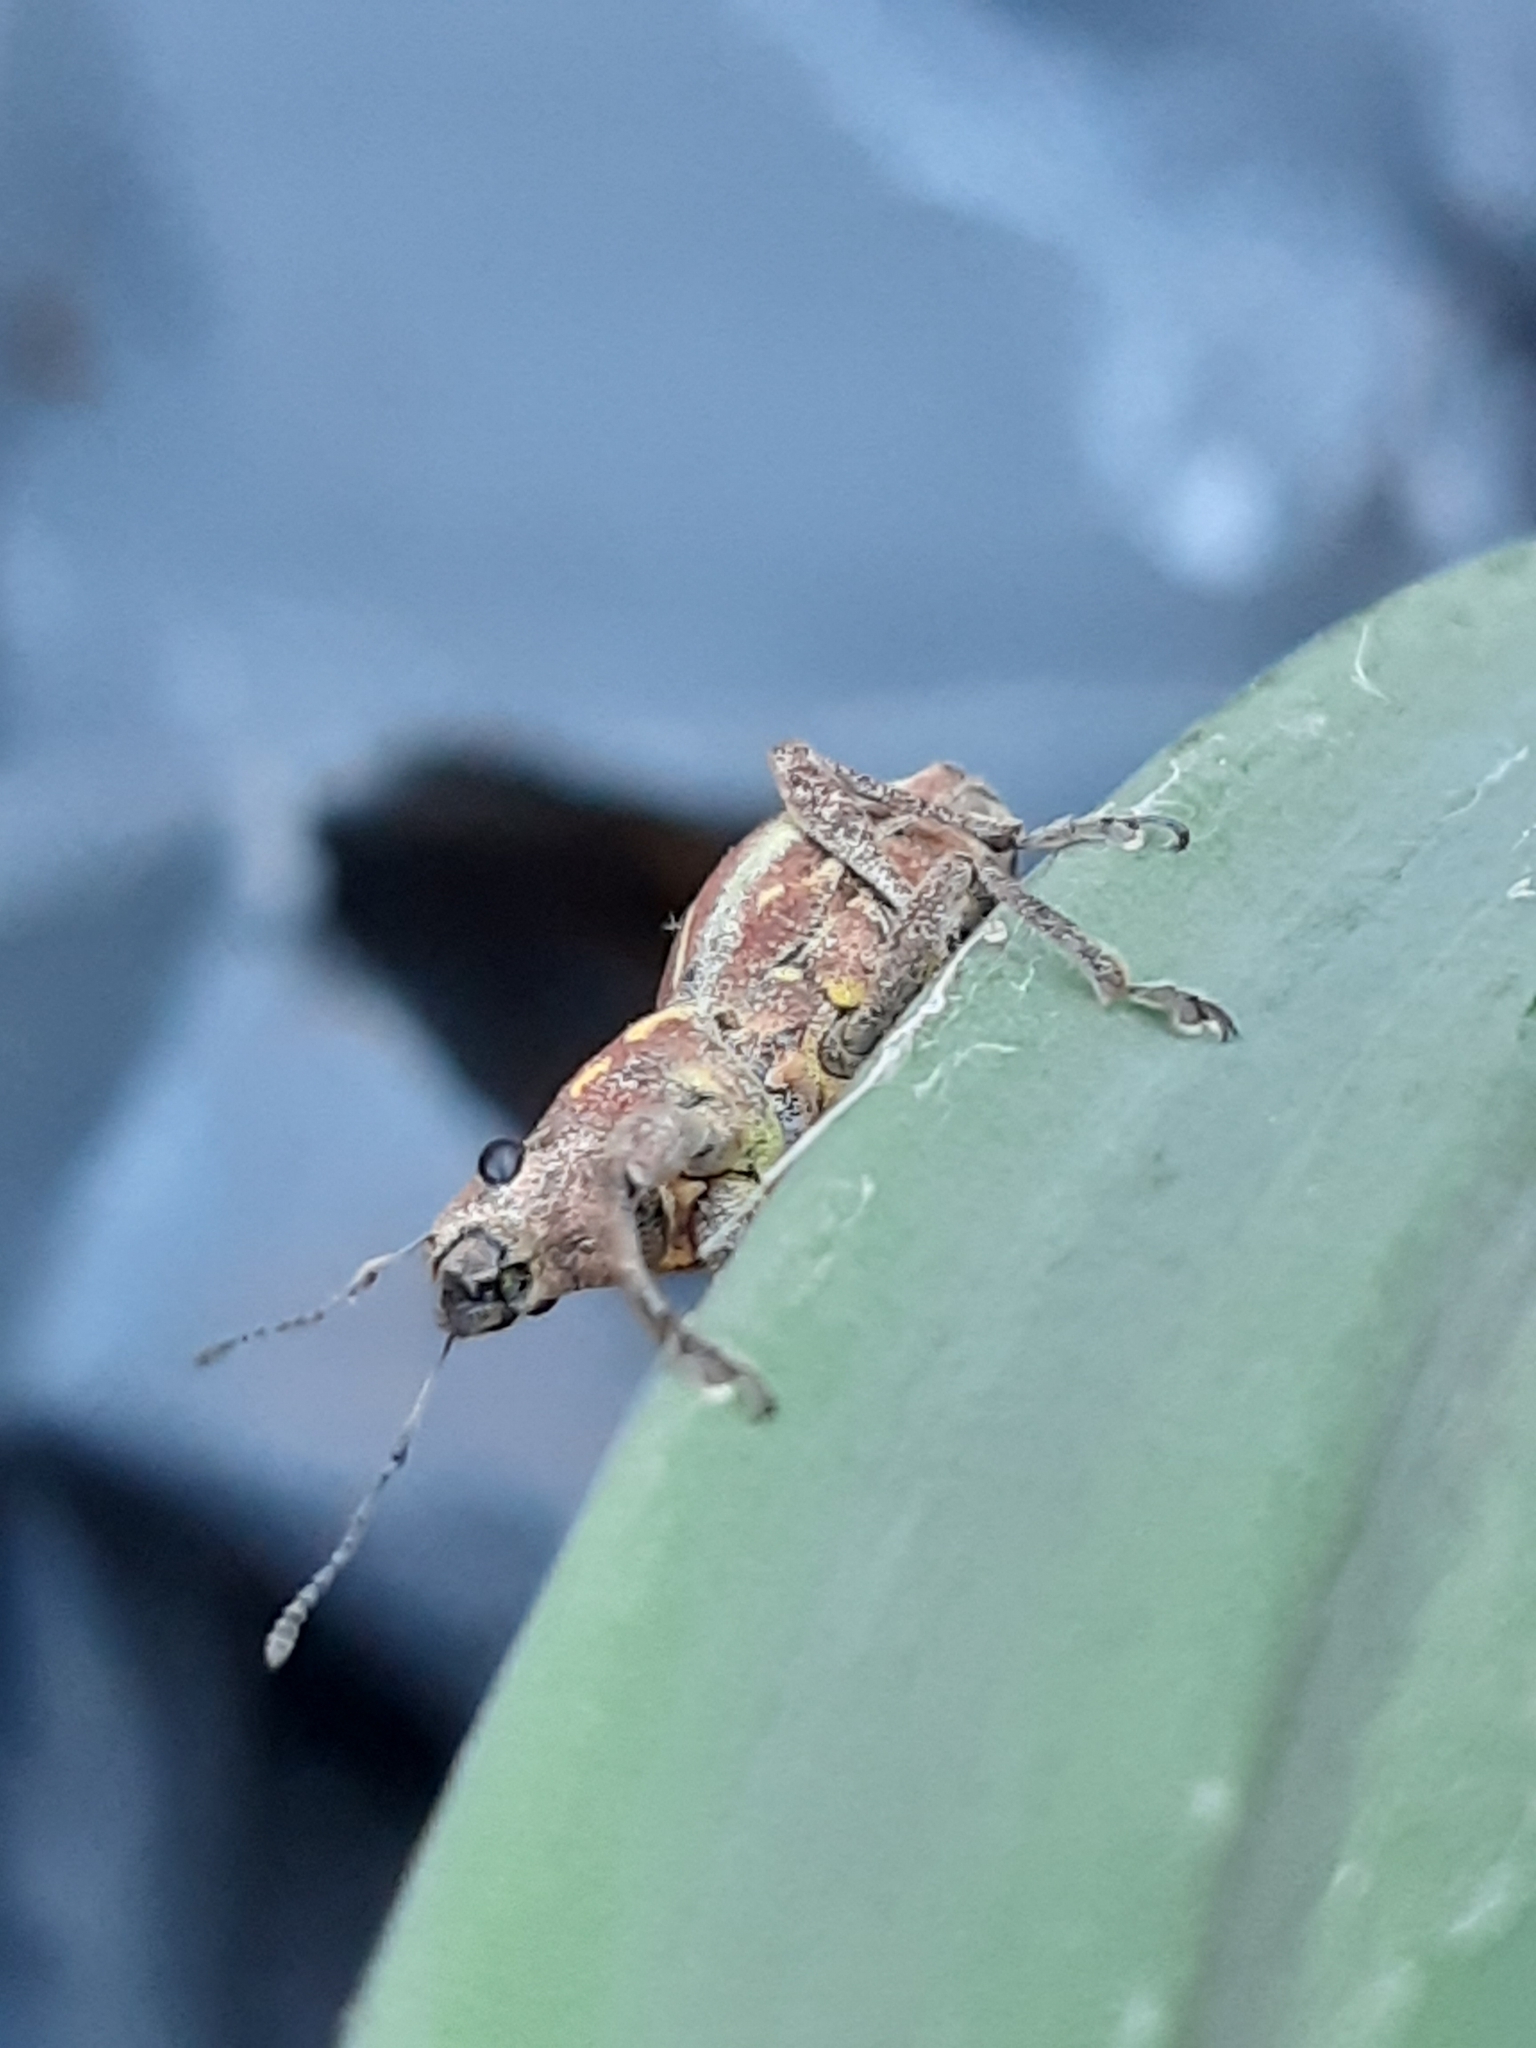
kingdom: Animalia
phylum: Arthropoda
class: Insecta
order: Coleoptera
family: Curculionidae
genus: Naupactus
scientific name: Naupactus xanthographus
